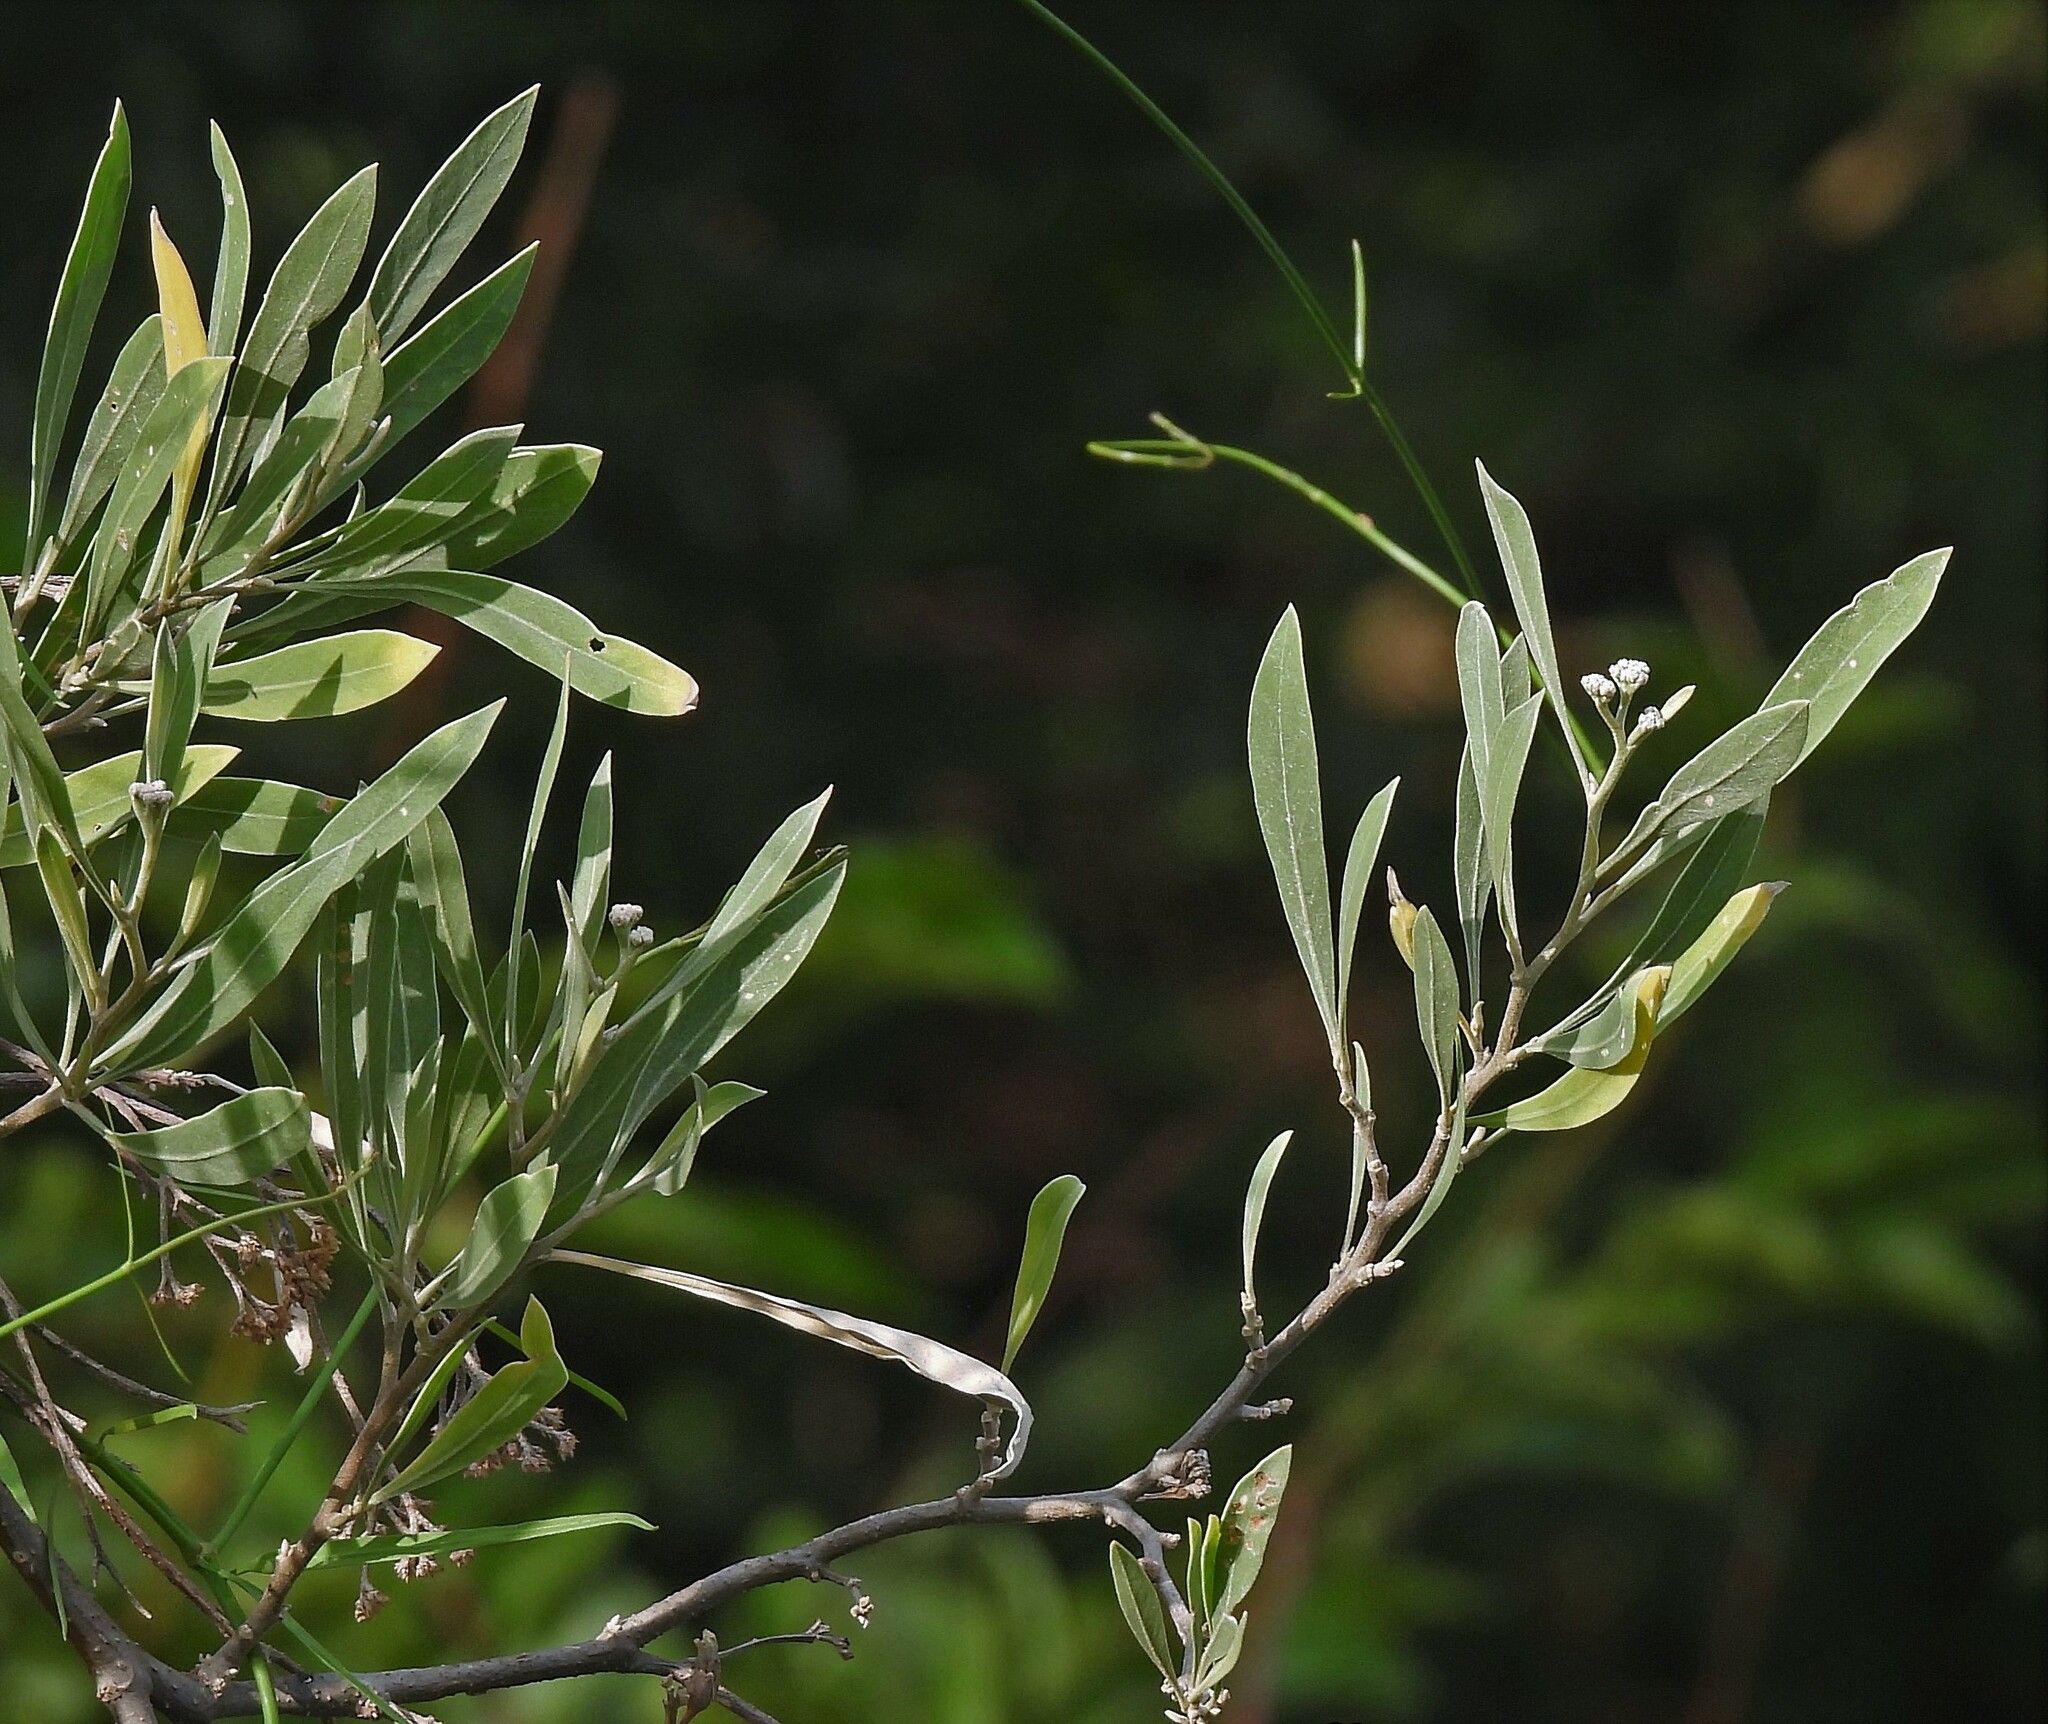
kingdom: Plantae
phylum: Tracheophyta
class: Magnoliopsida
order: Asterales
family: Asteraceae
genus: Tessaria
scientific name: Tessaria integrifolia
